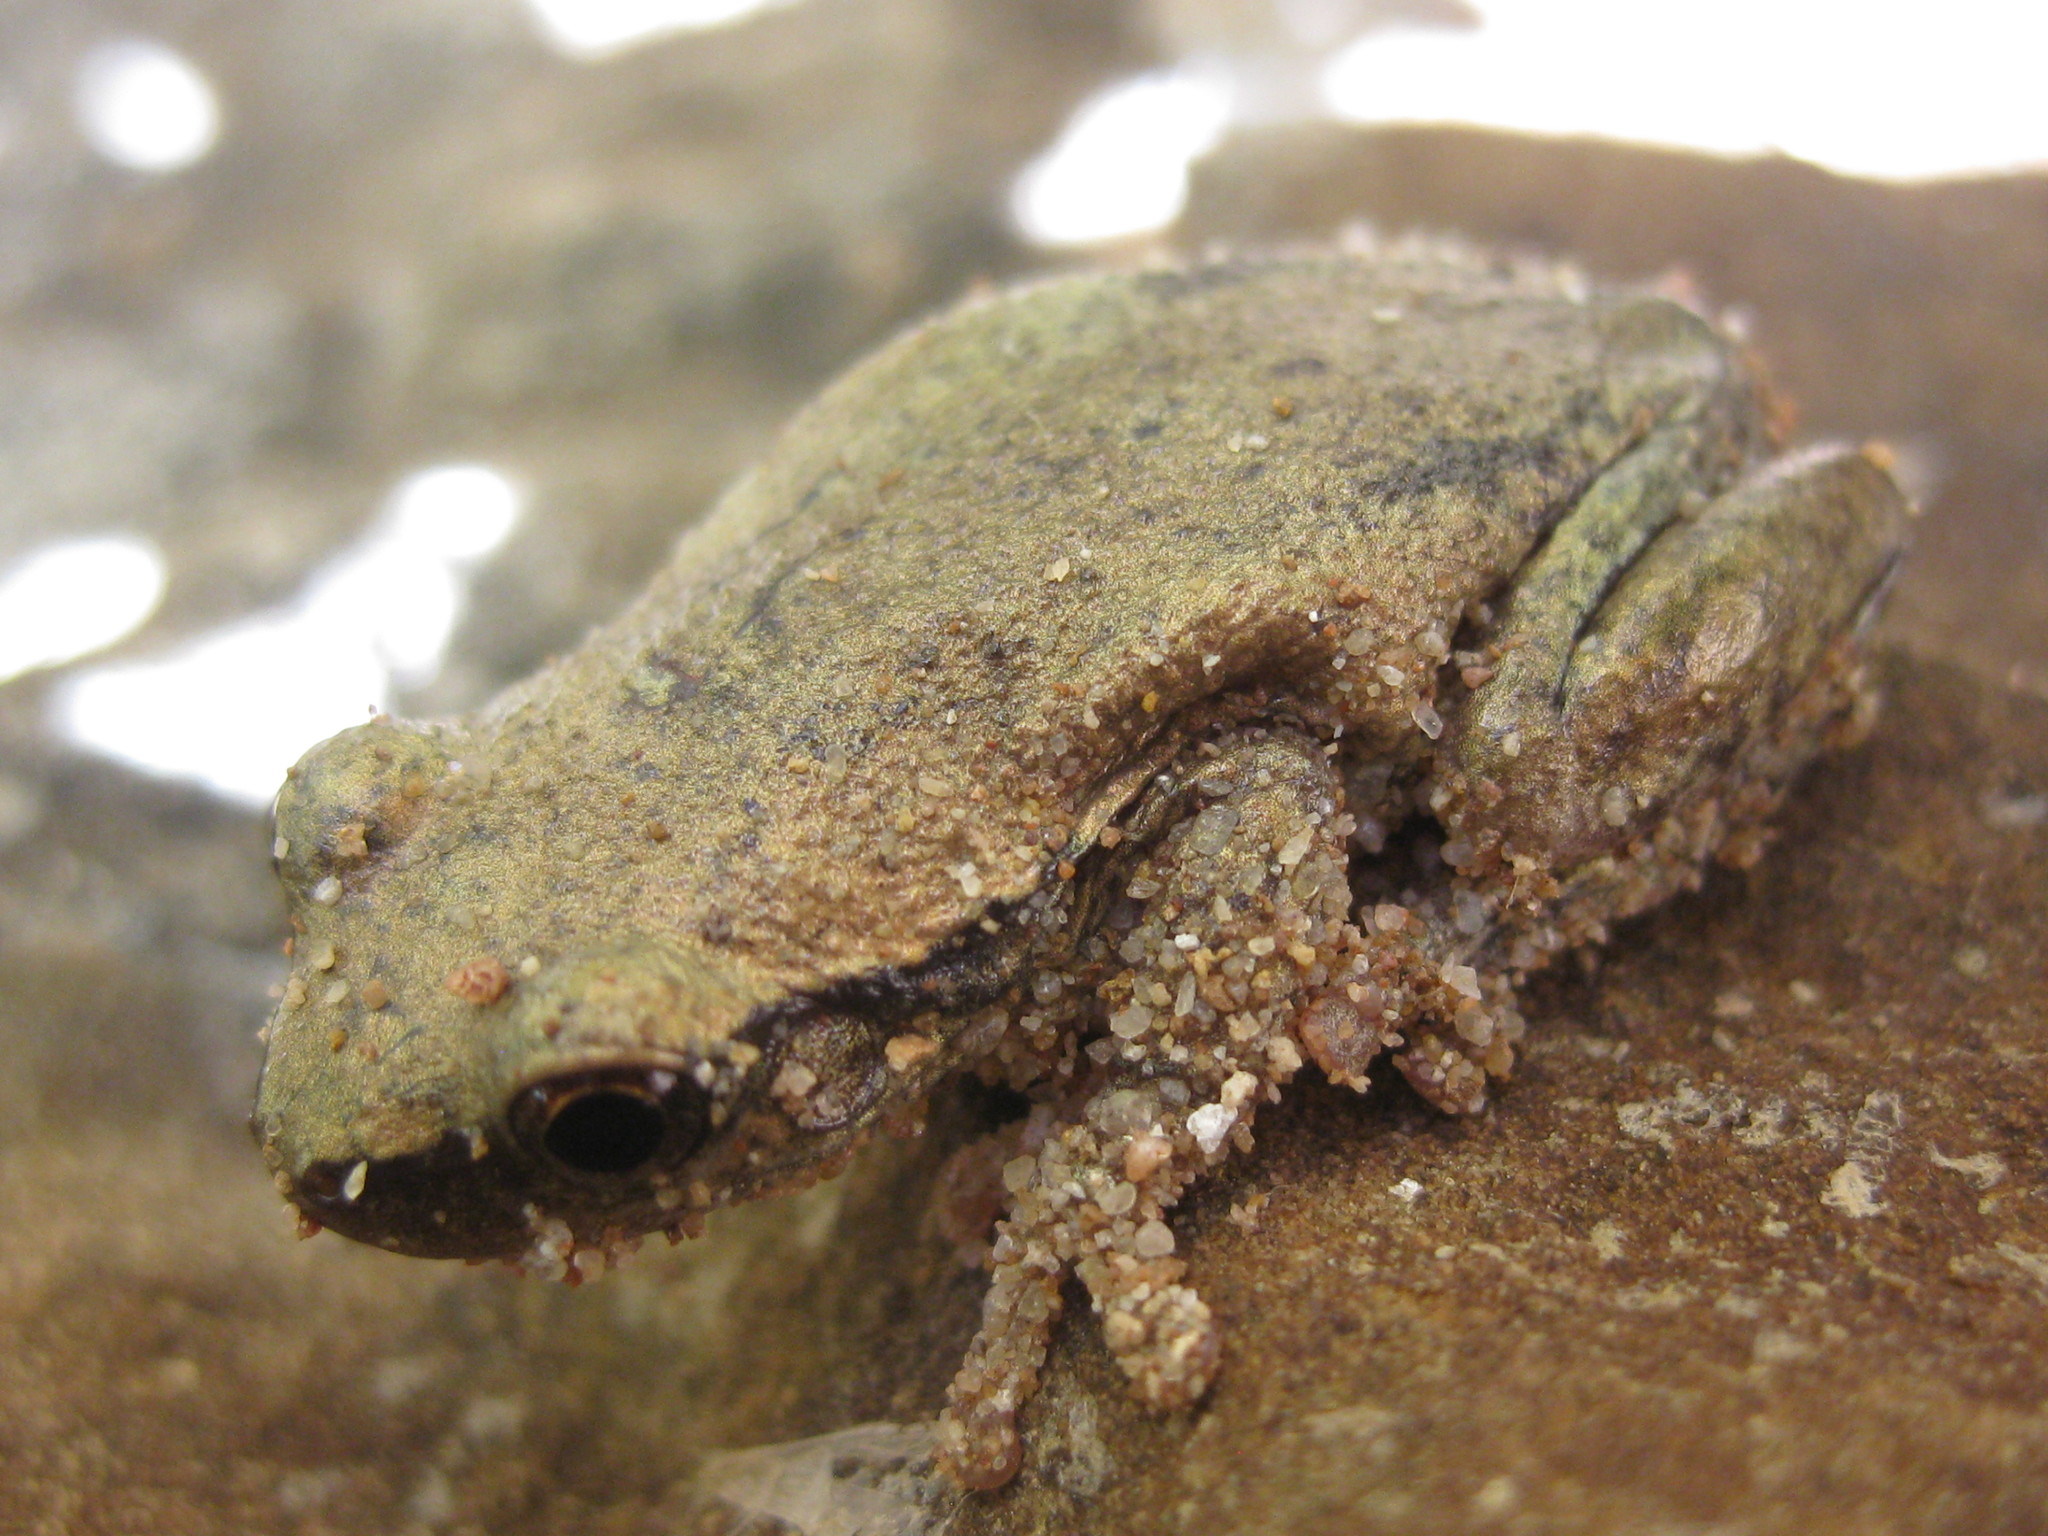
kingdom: Animalia
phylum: Chordata
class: Amphibia
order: Anura
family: Pelodryadidae
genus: Litoria
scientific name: Litoria rubella
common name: Desert tree frog
